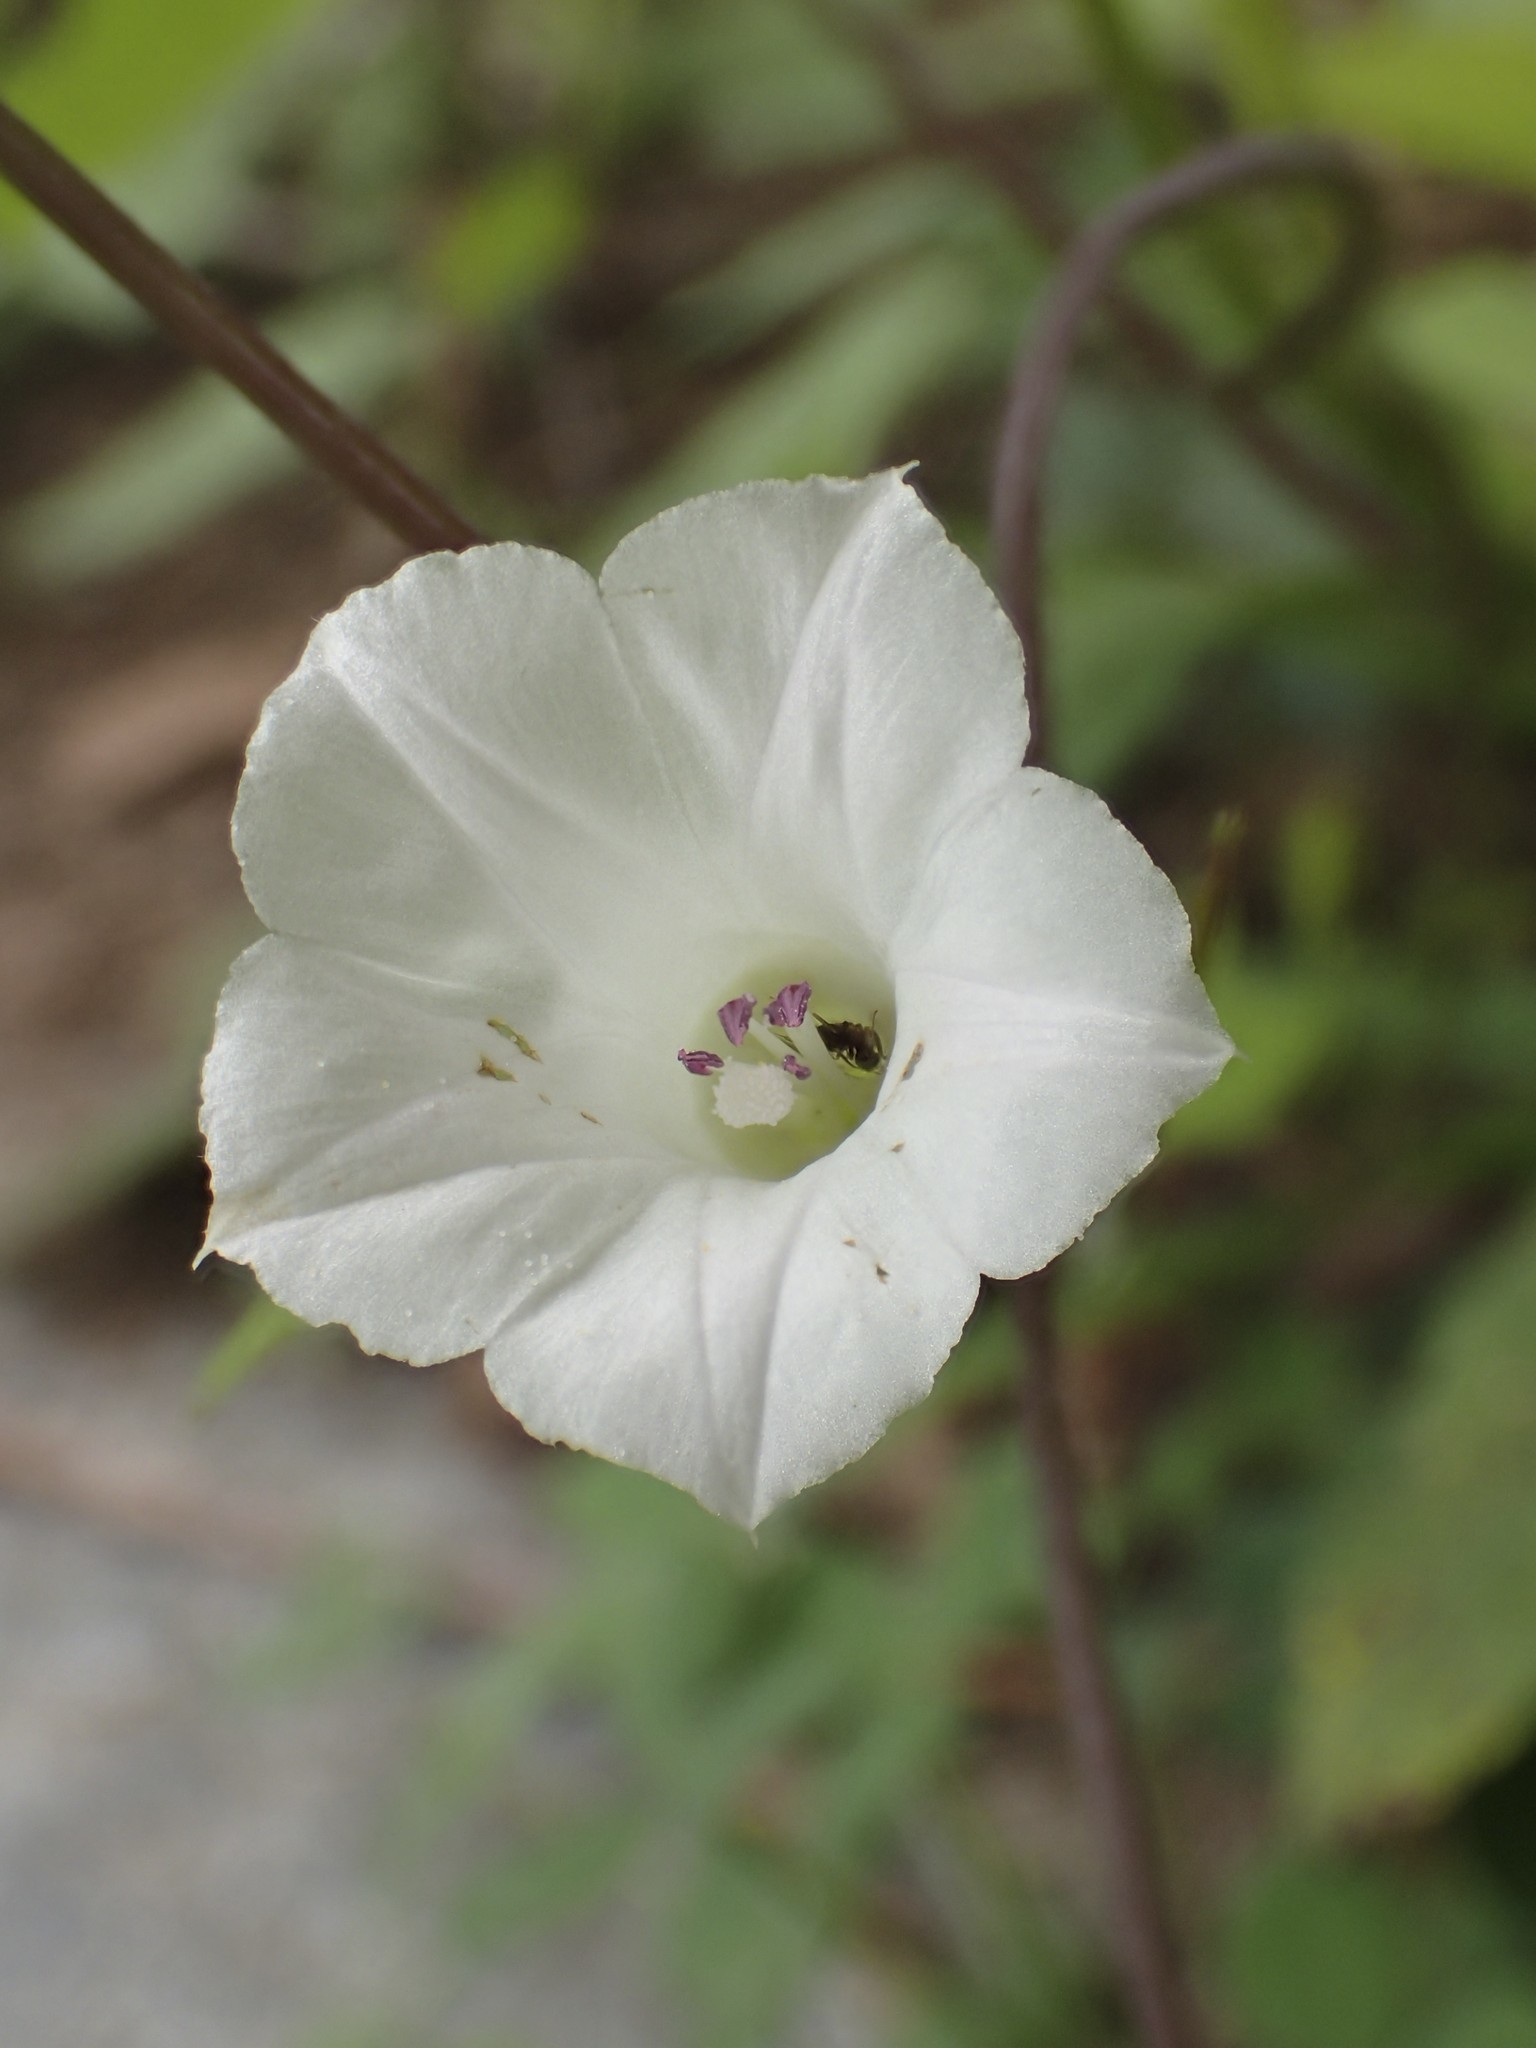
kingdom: Plantae
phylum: Tracheophyta
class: Magnoliopsida
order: Solanales
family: Convolvulaceae
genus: Ipomoea
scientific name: Ipomoea lacunosa
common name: White morning-glory
